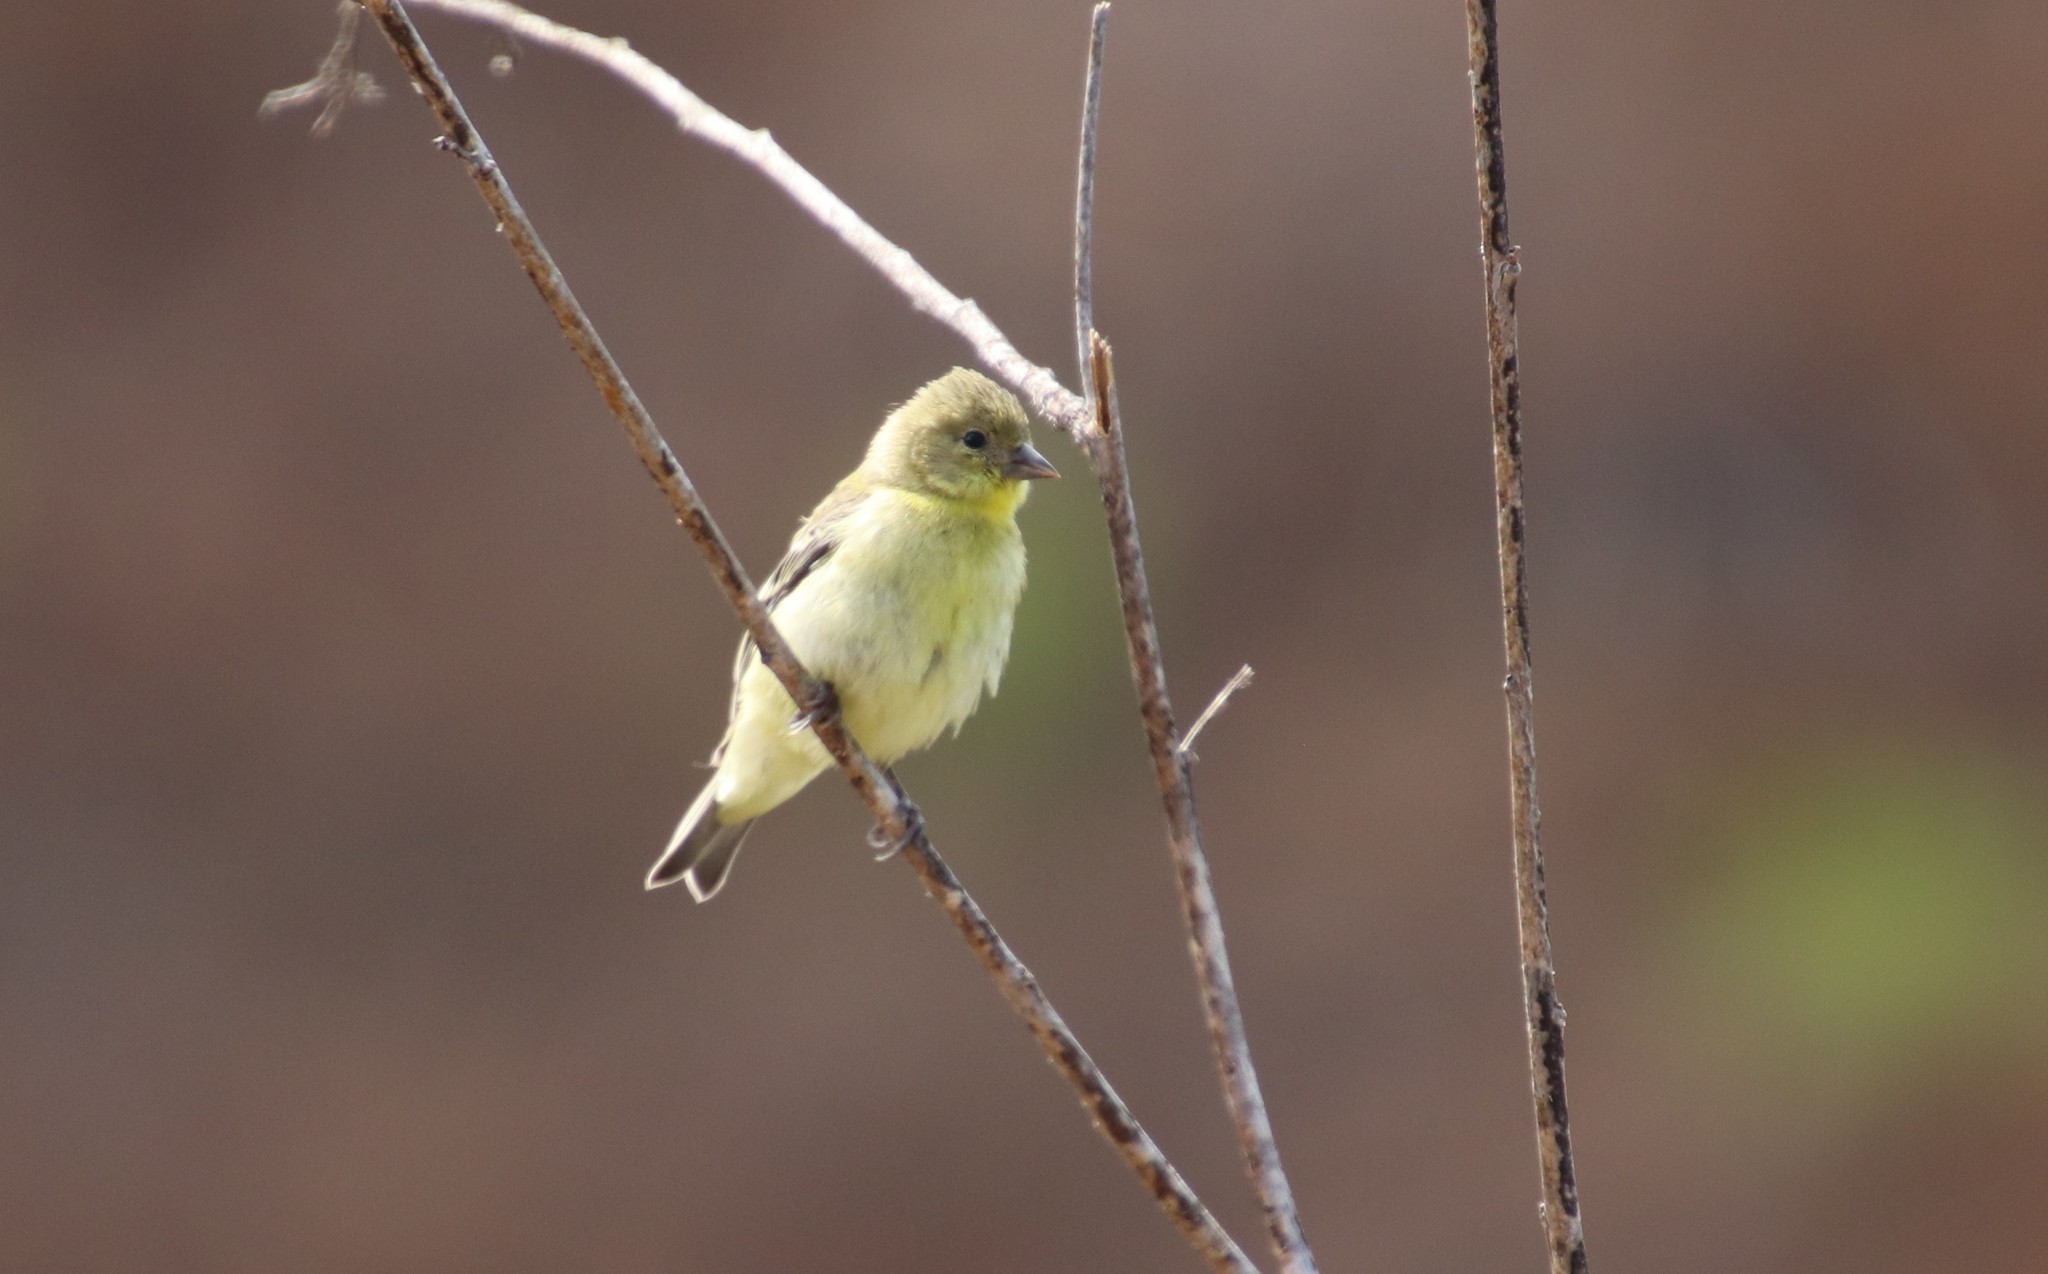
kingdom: Animalia
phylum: Chordata
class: Aves
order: Passeriformes
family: Fringillidae
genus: Spinus
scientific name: Spinus psaltria
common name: Lesser goldfinch
